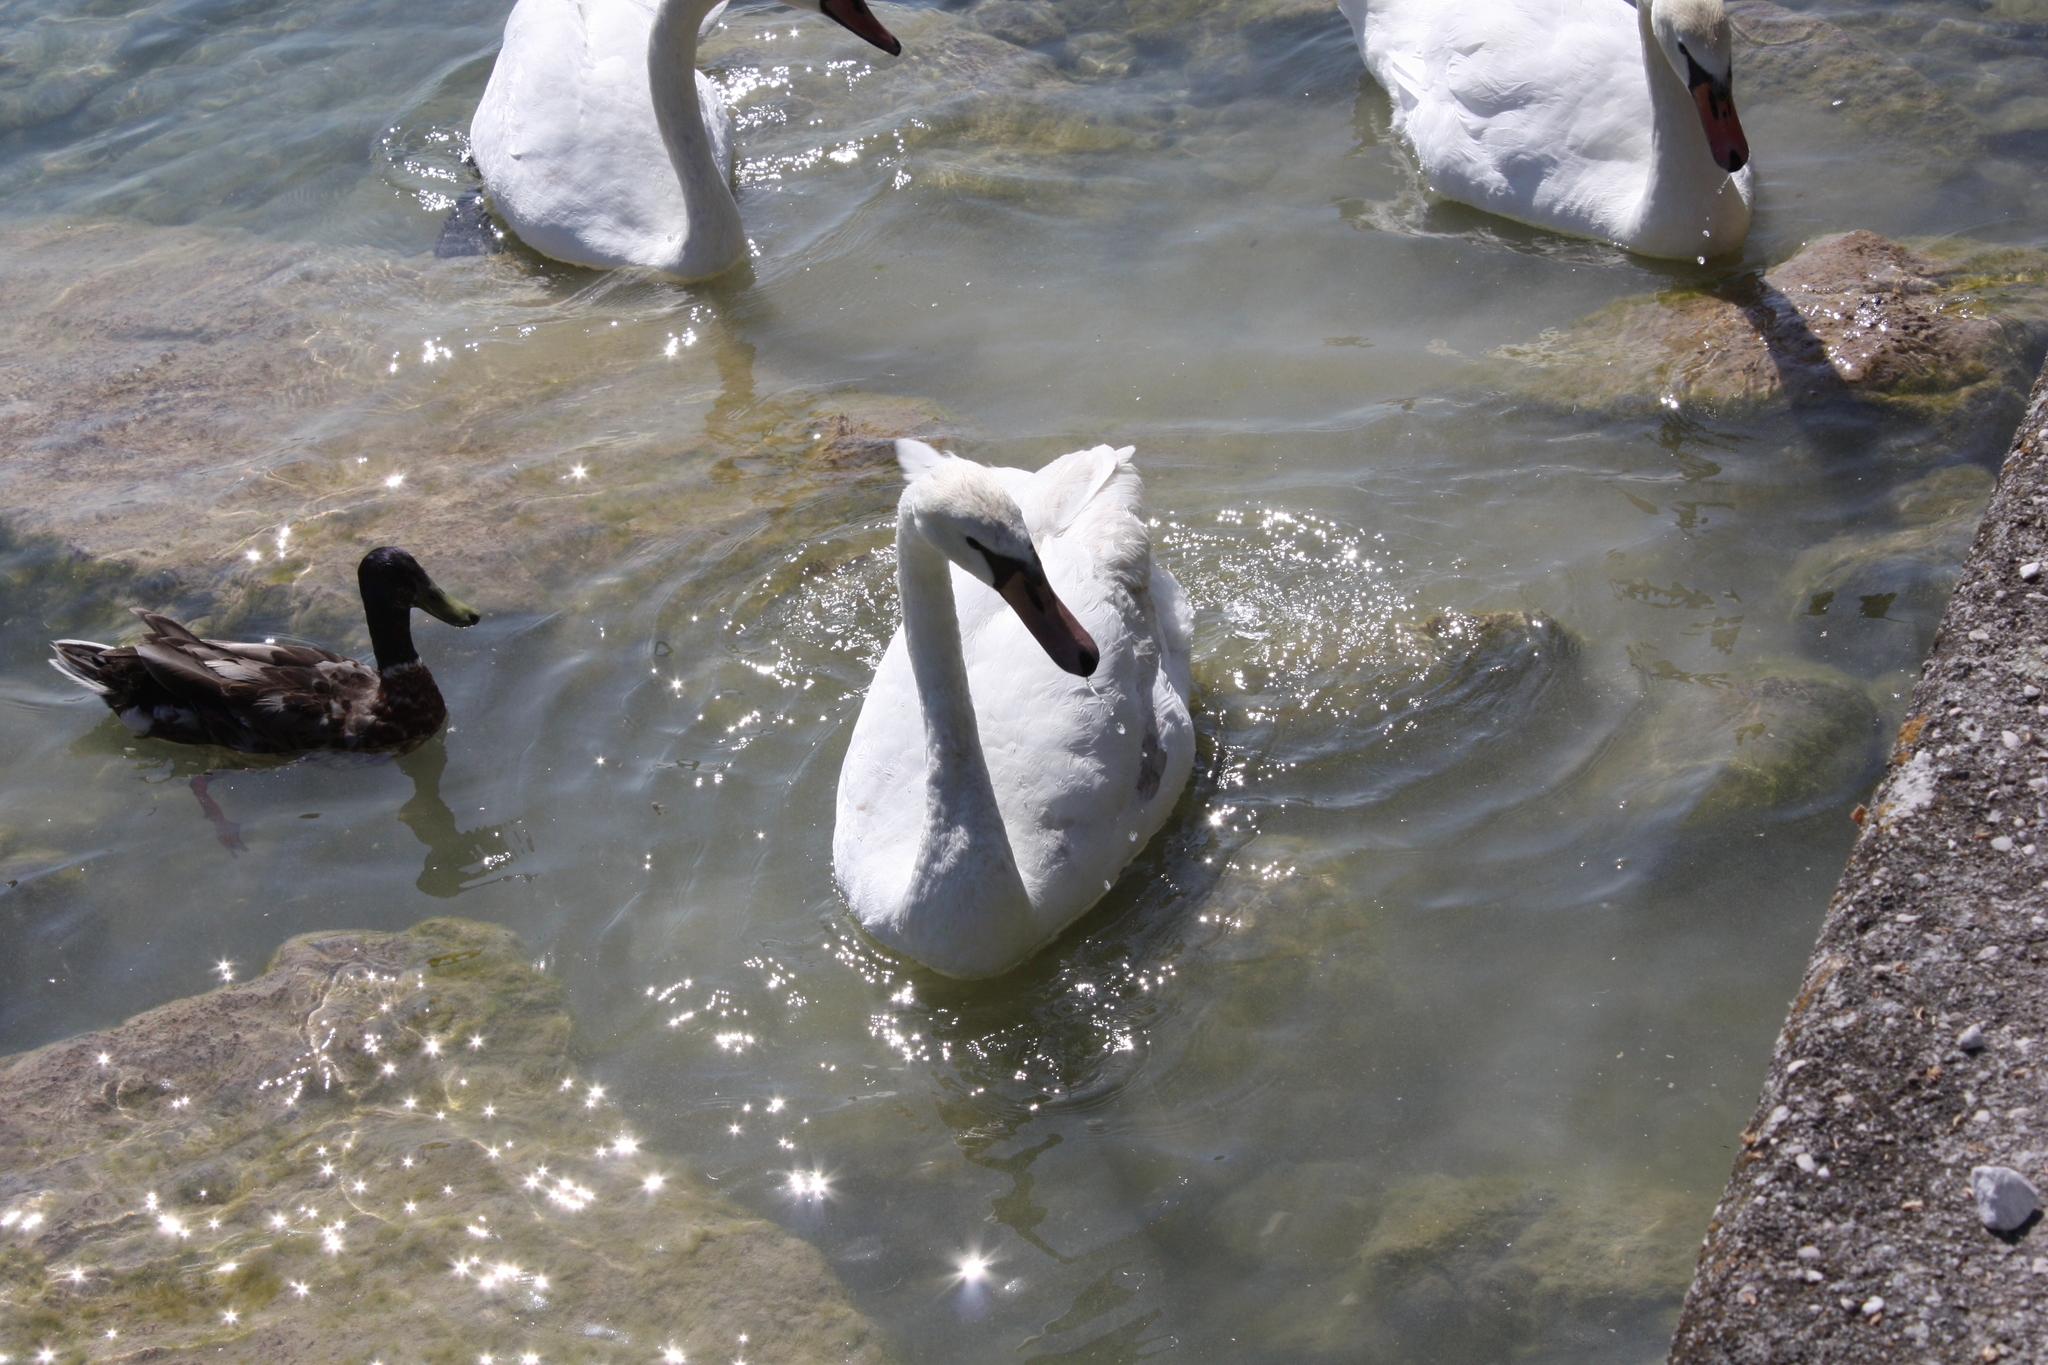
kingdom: Animalia
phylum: Chordata
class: Aves
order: Anseriformes
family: Anatidae
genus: Cygnus
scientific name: Cygnus olor
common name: Mute swan
